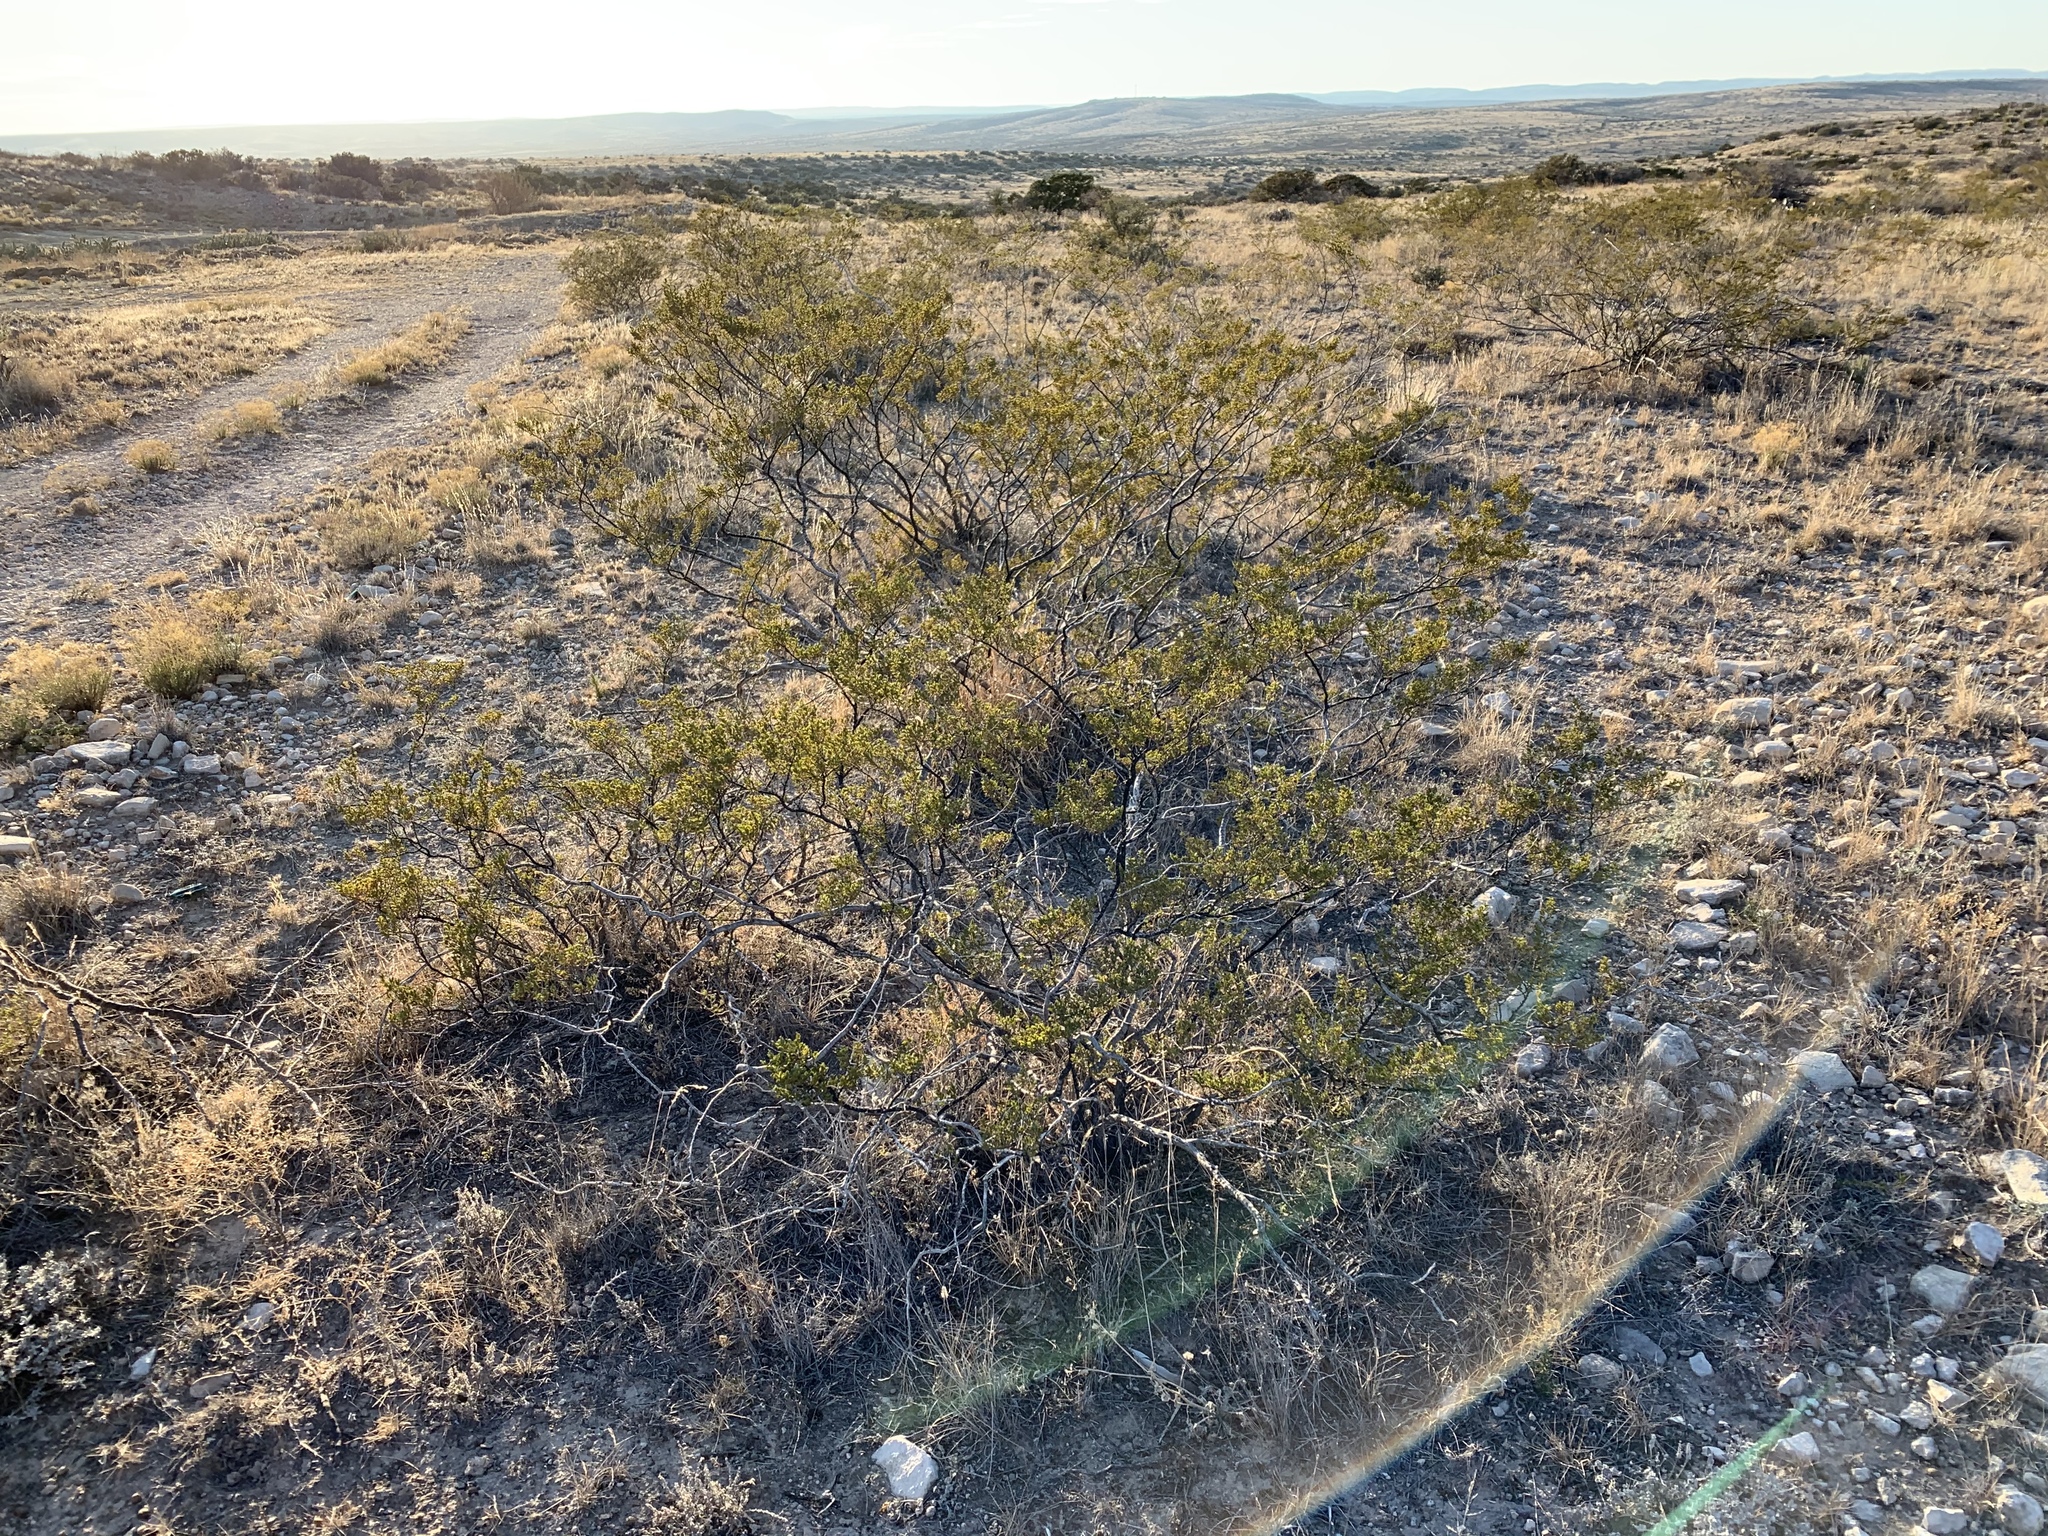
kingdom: Plantae
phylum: Tracheophyta
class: Magnoliopsida
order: Zygophyllales
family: Zygophyllaceae
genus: Larrea
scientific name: Larrea tridentata
